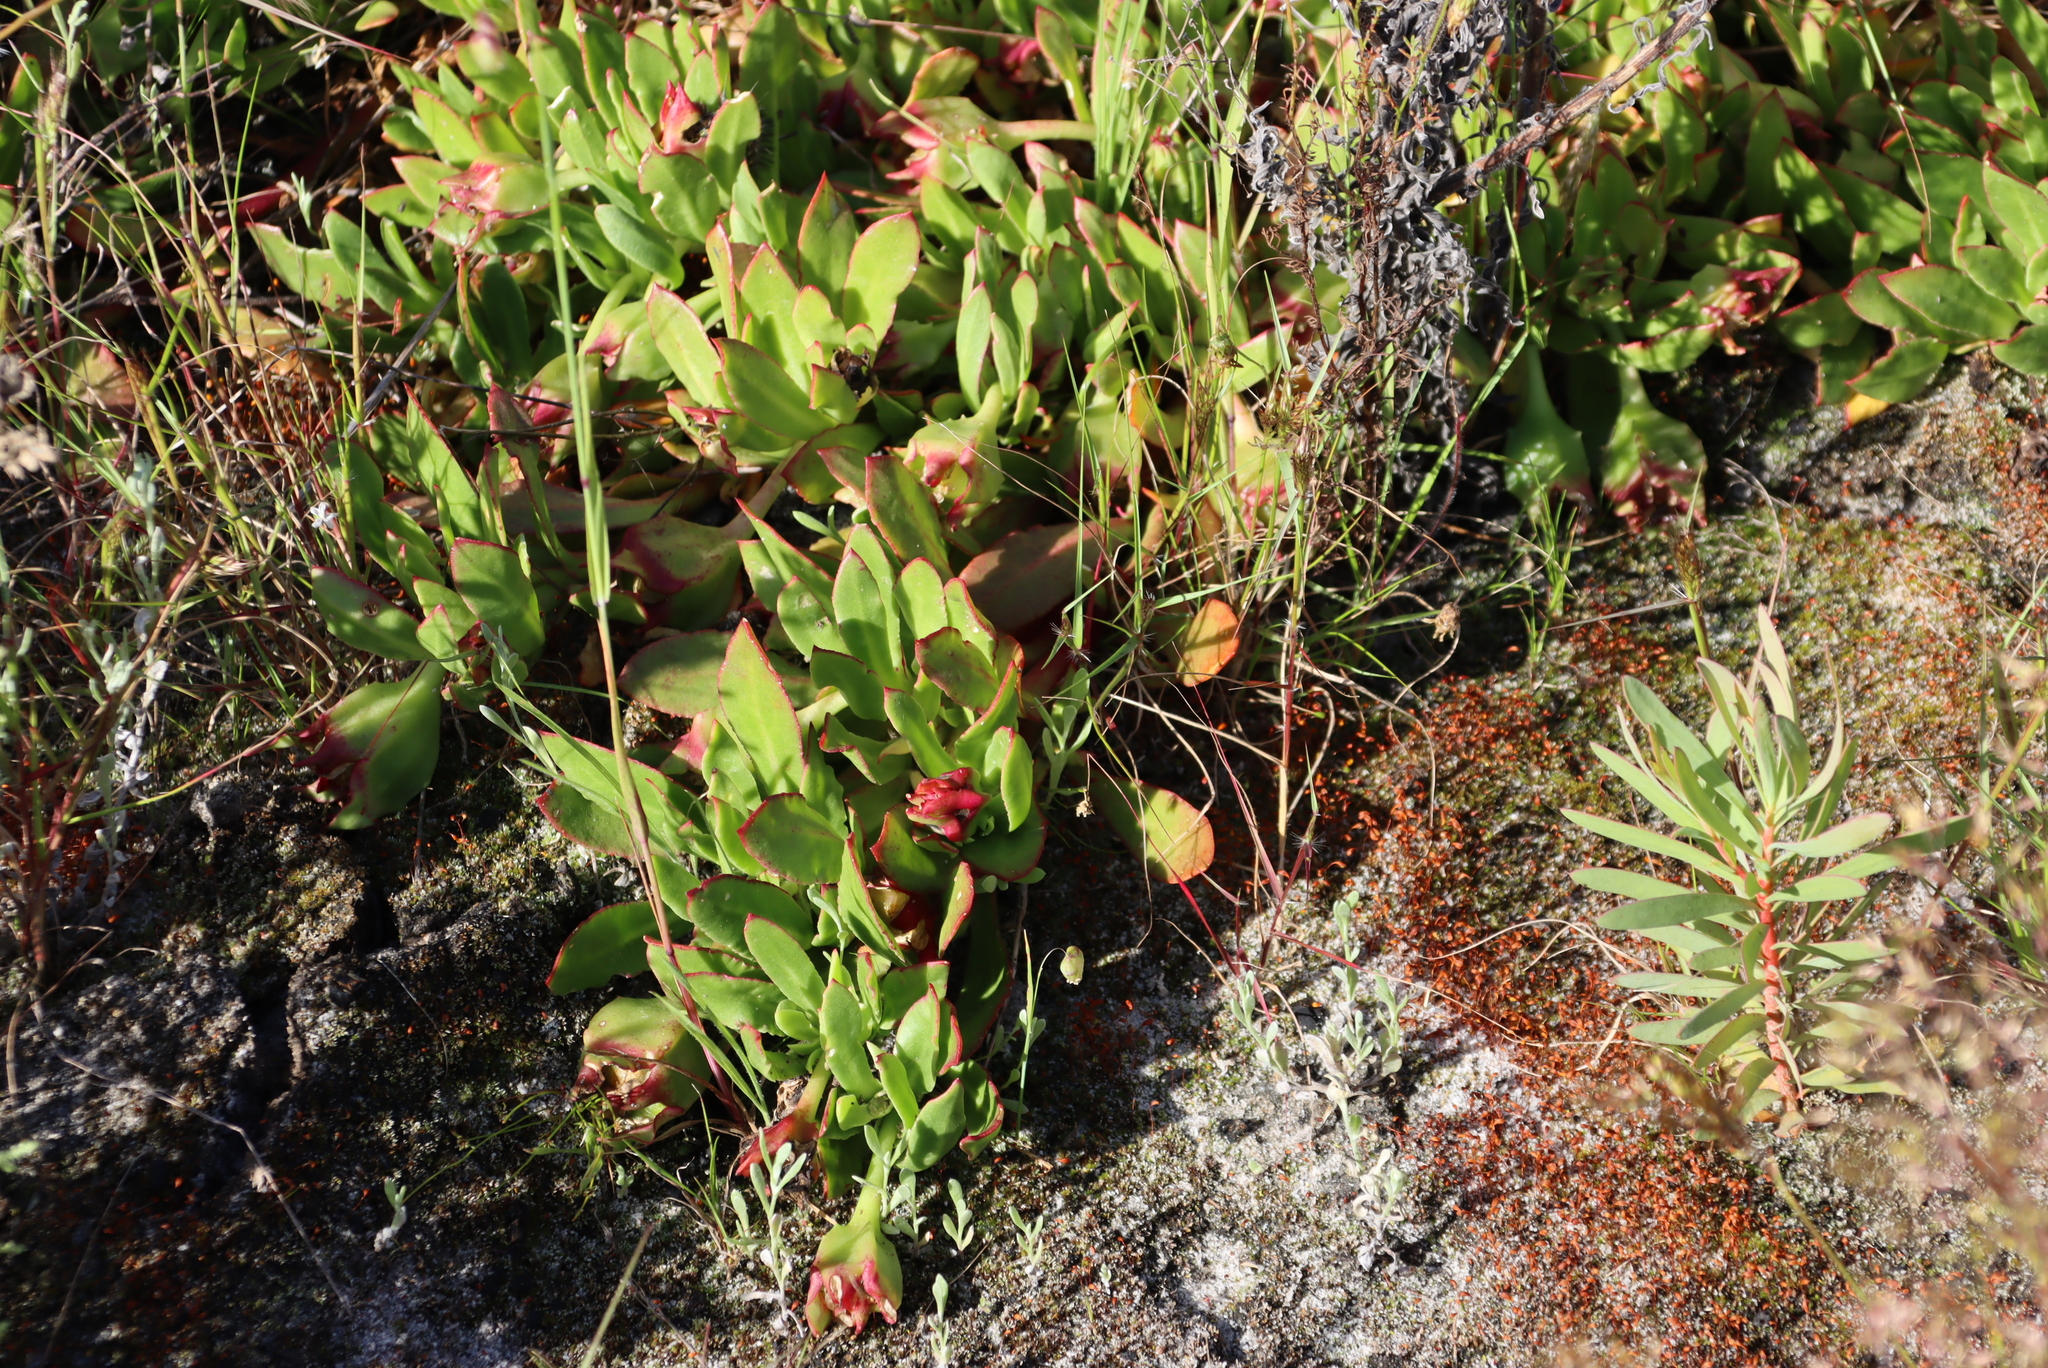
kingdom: Plantae
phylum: Tracheophyta
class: Magnoliopsida
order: Caryophyllales
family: Aizoaceae
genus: Skiatophytum
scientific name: Skiatophytum tripolium
